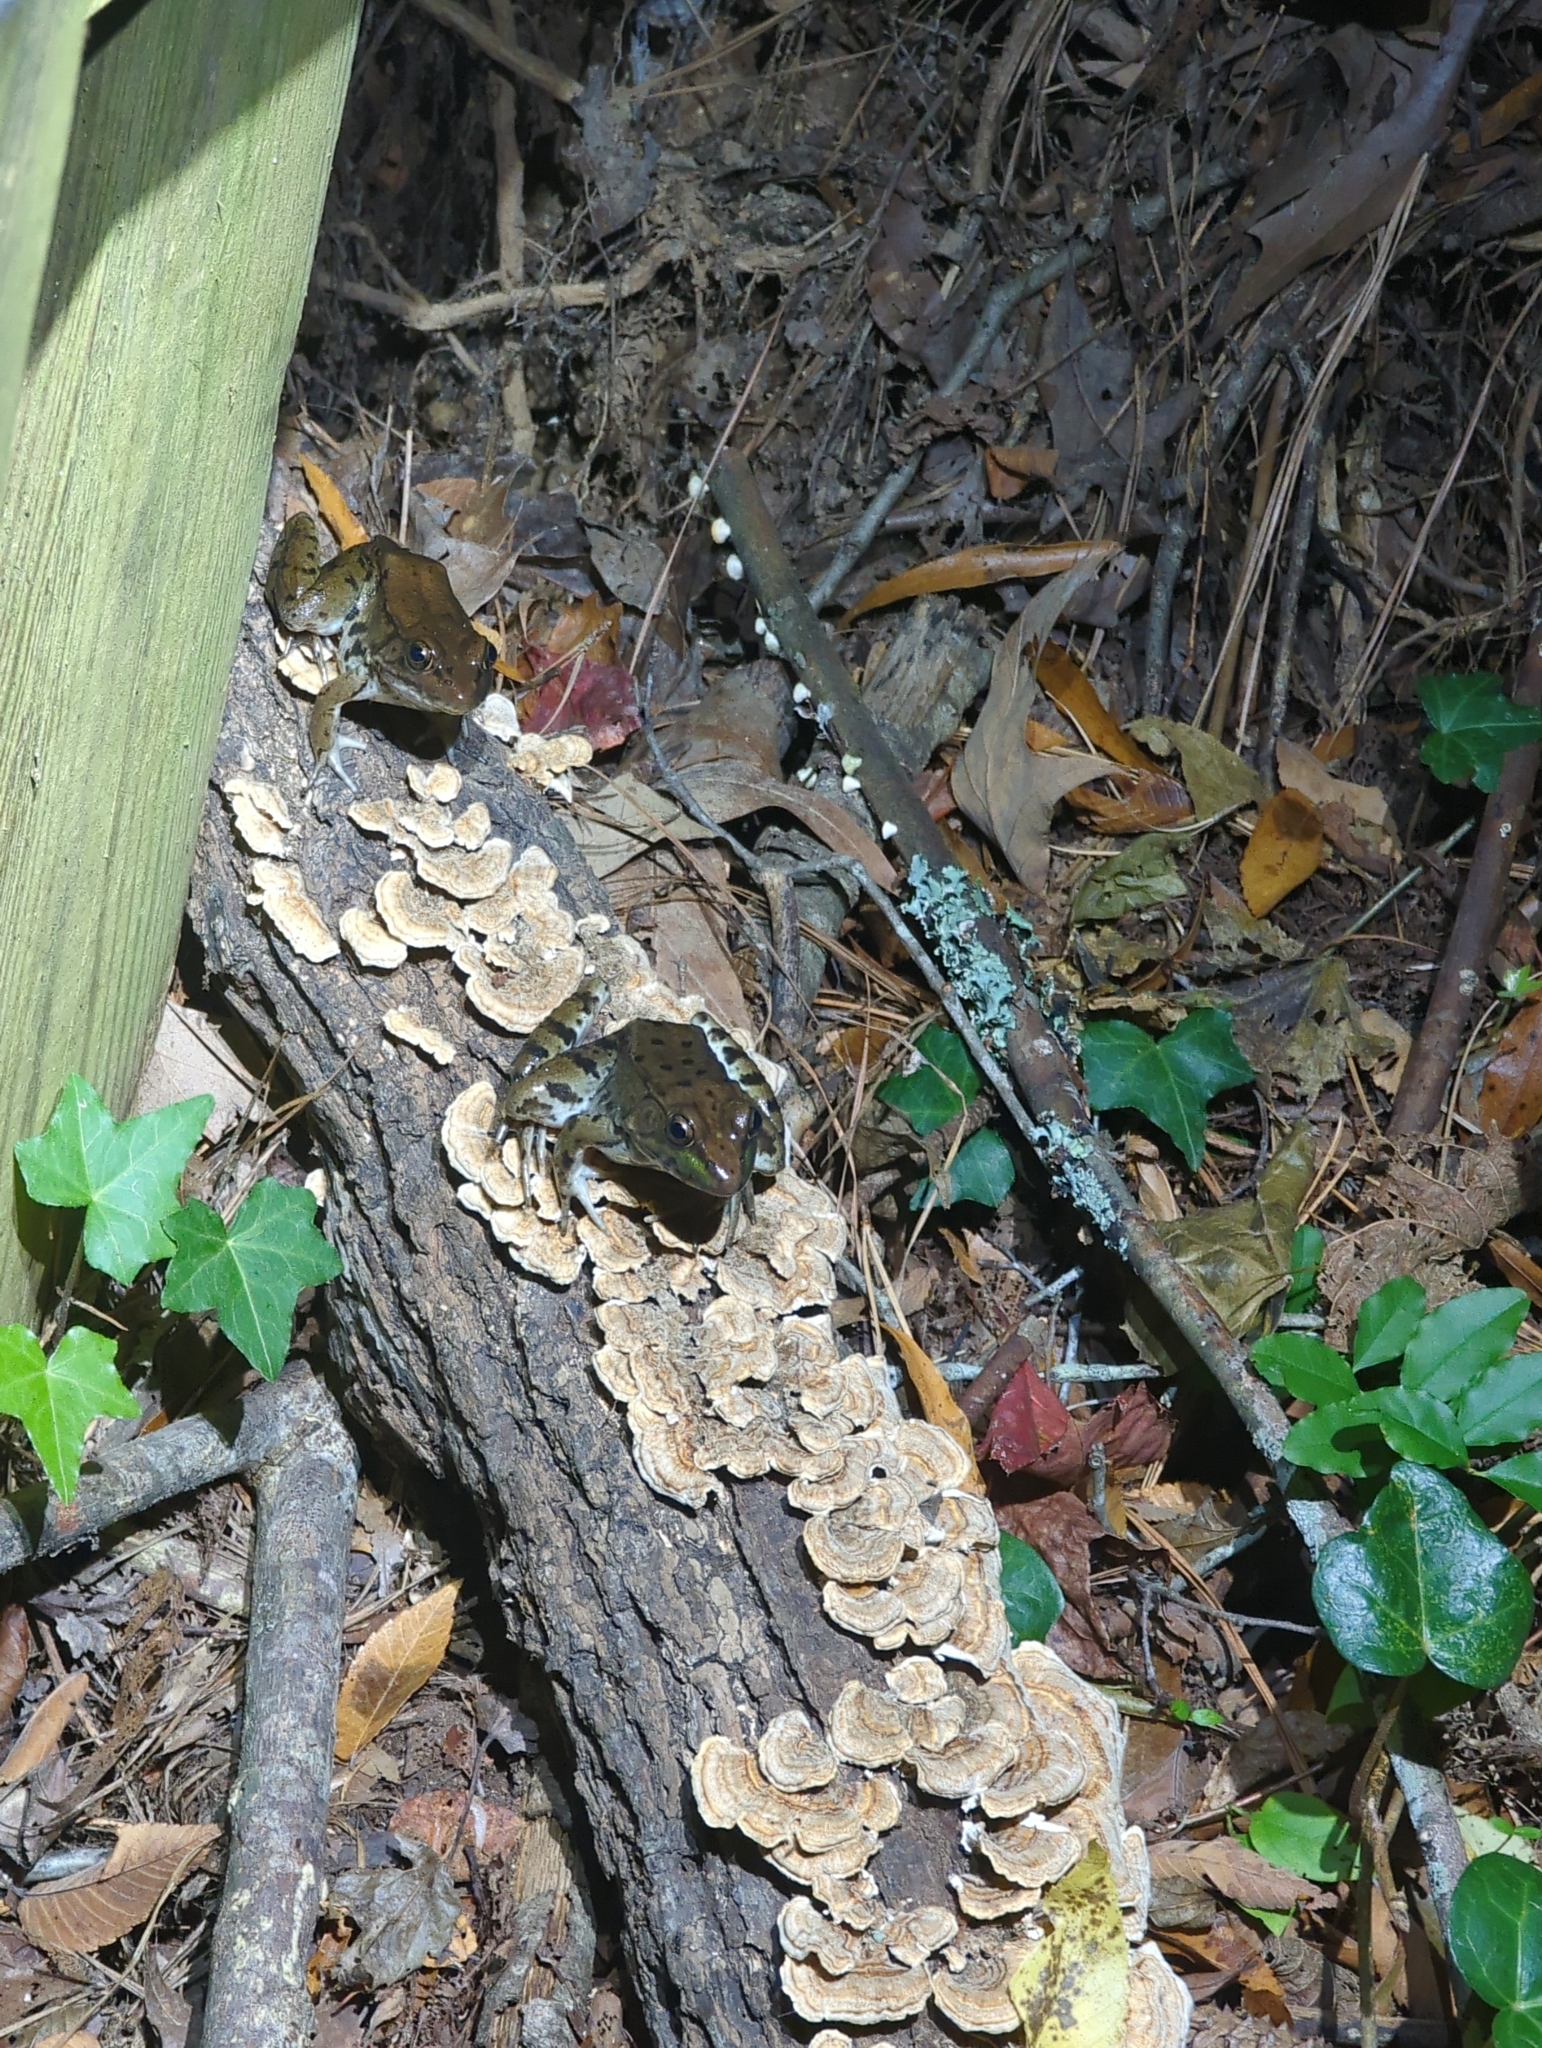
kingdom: Animalia
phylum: Chordata
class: Amphibia
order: Anura
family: Ranidae
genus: Lithobates
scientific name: Lithobates clamitans
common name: Green frog
